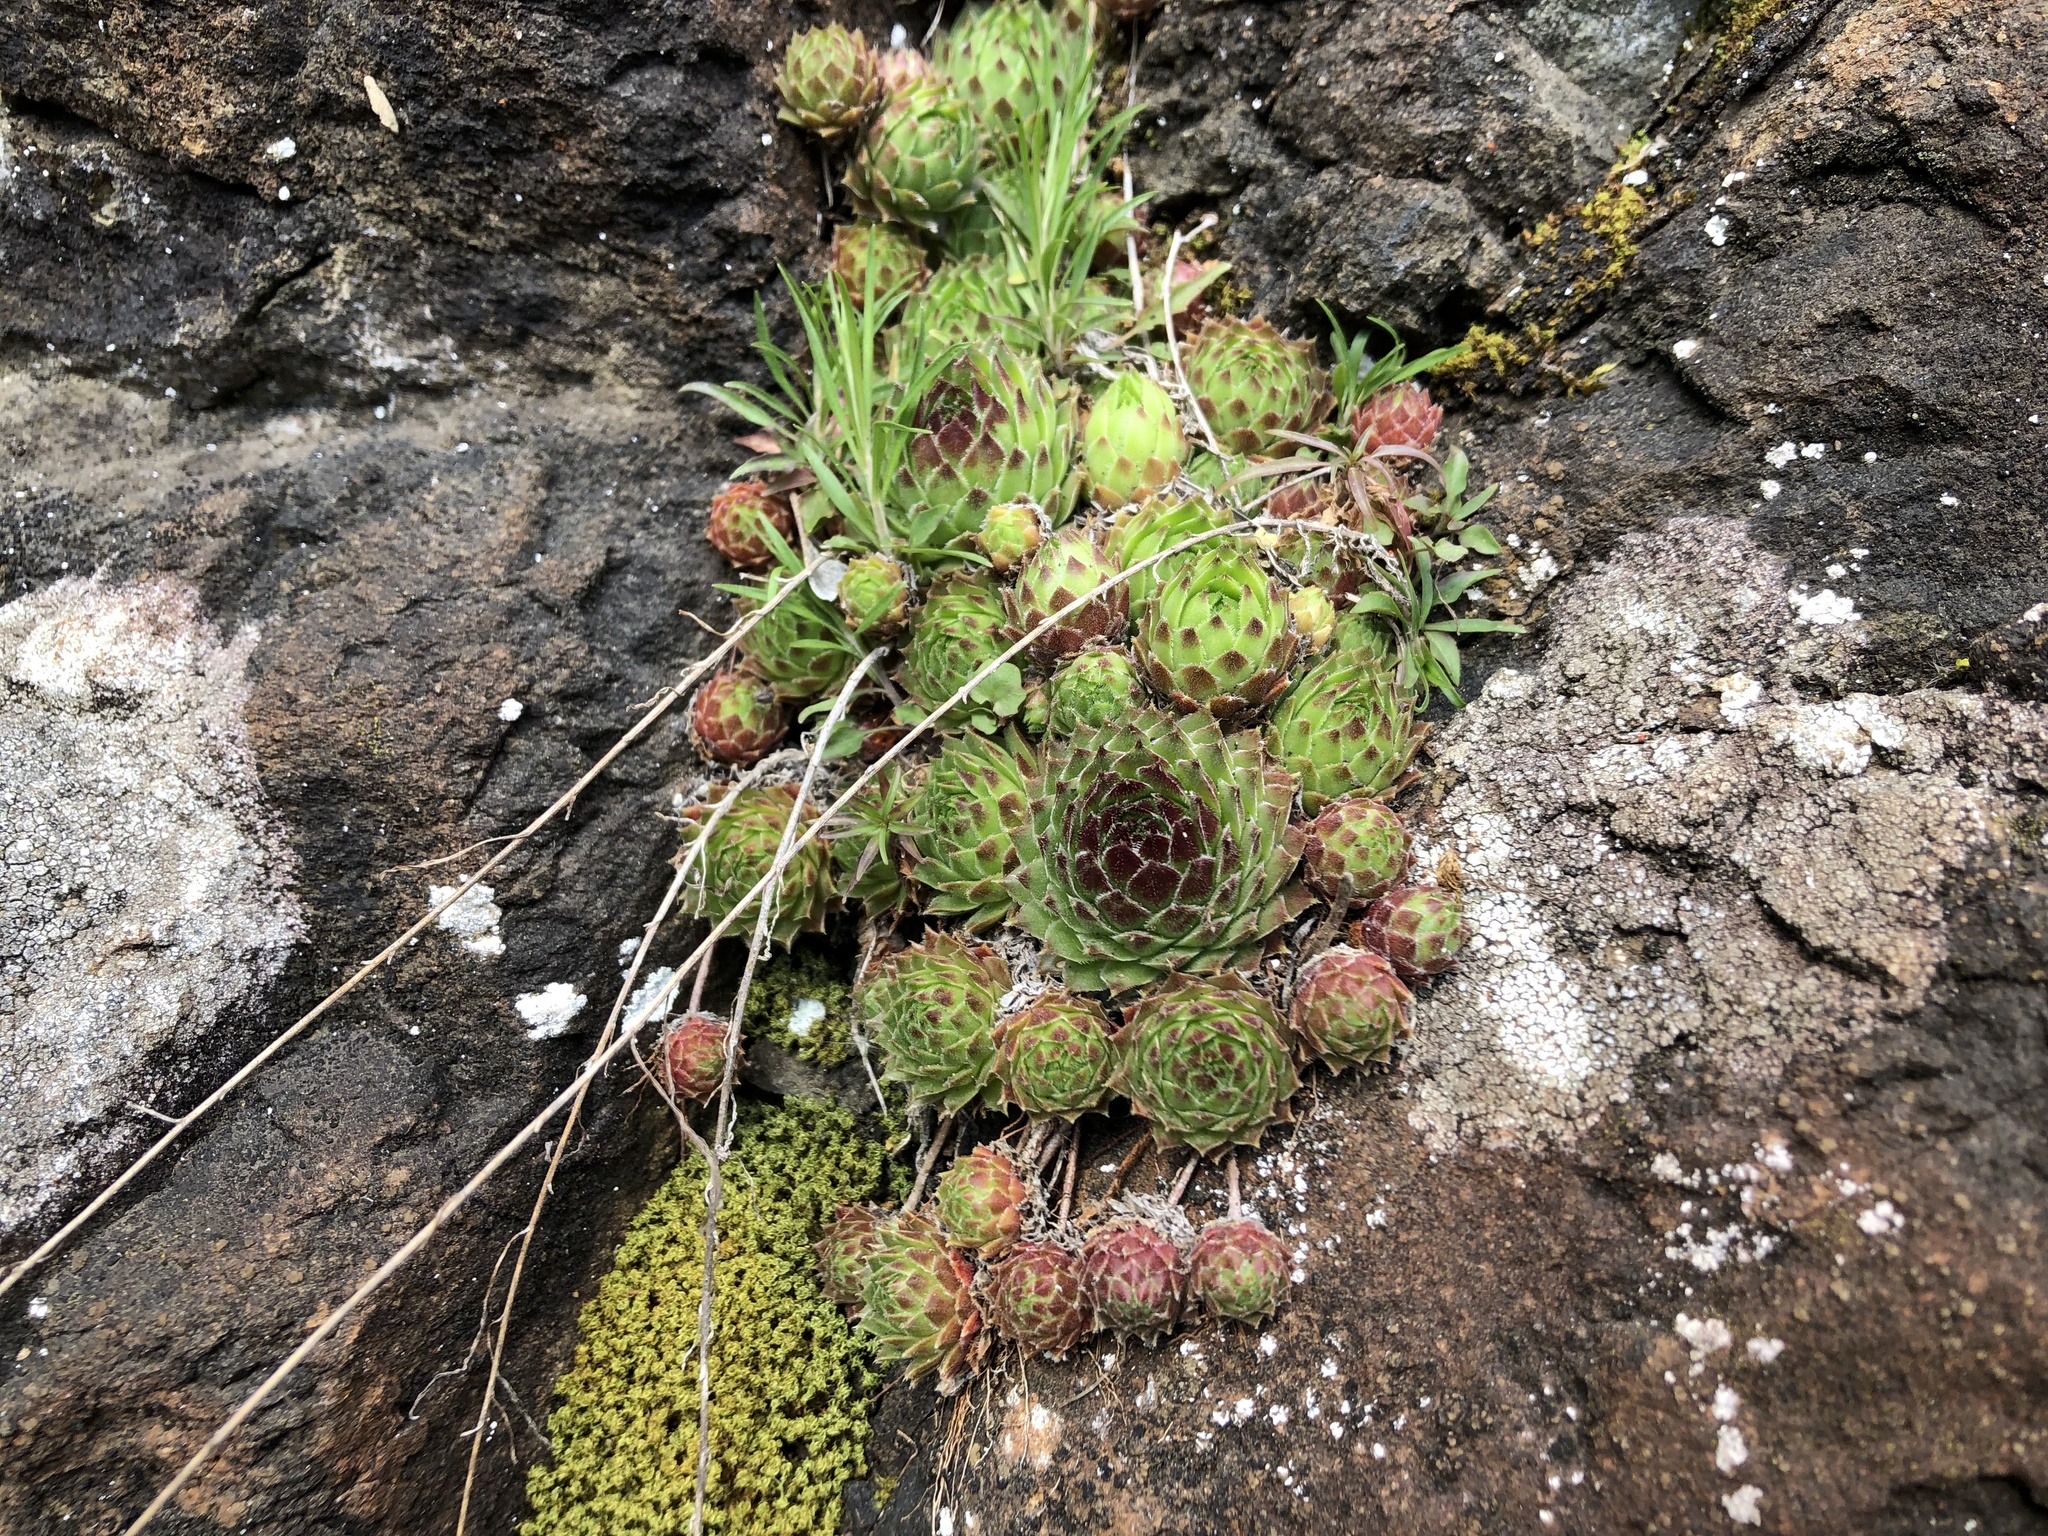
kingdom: Plantae
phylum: Tracheophyta
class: Magnoliopsida
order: Saxifragales
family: Crassulaceae
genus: Sempervivum
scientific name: Sempervivum globiferum
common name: Rolling hen-and-chicks
